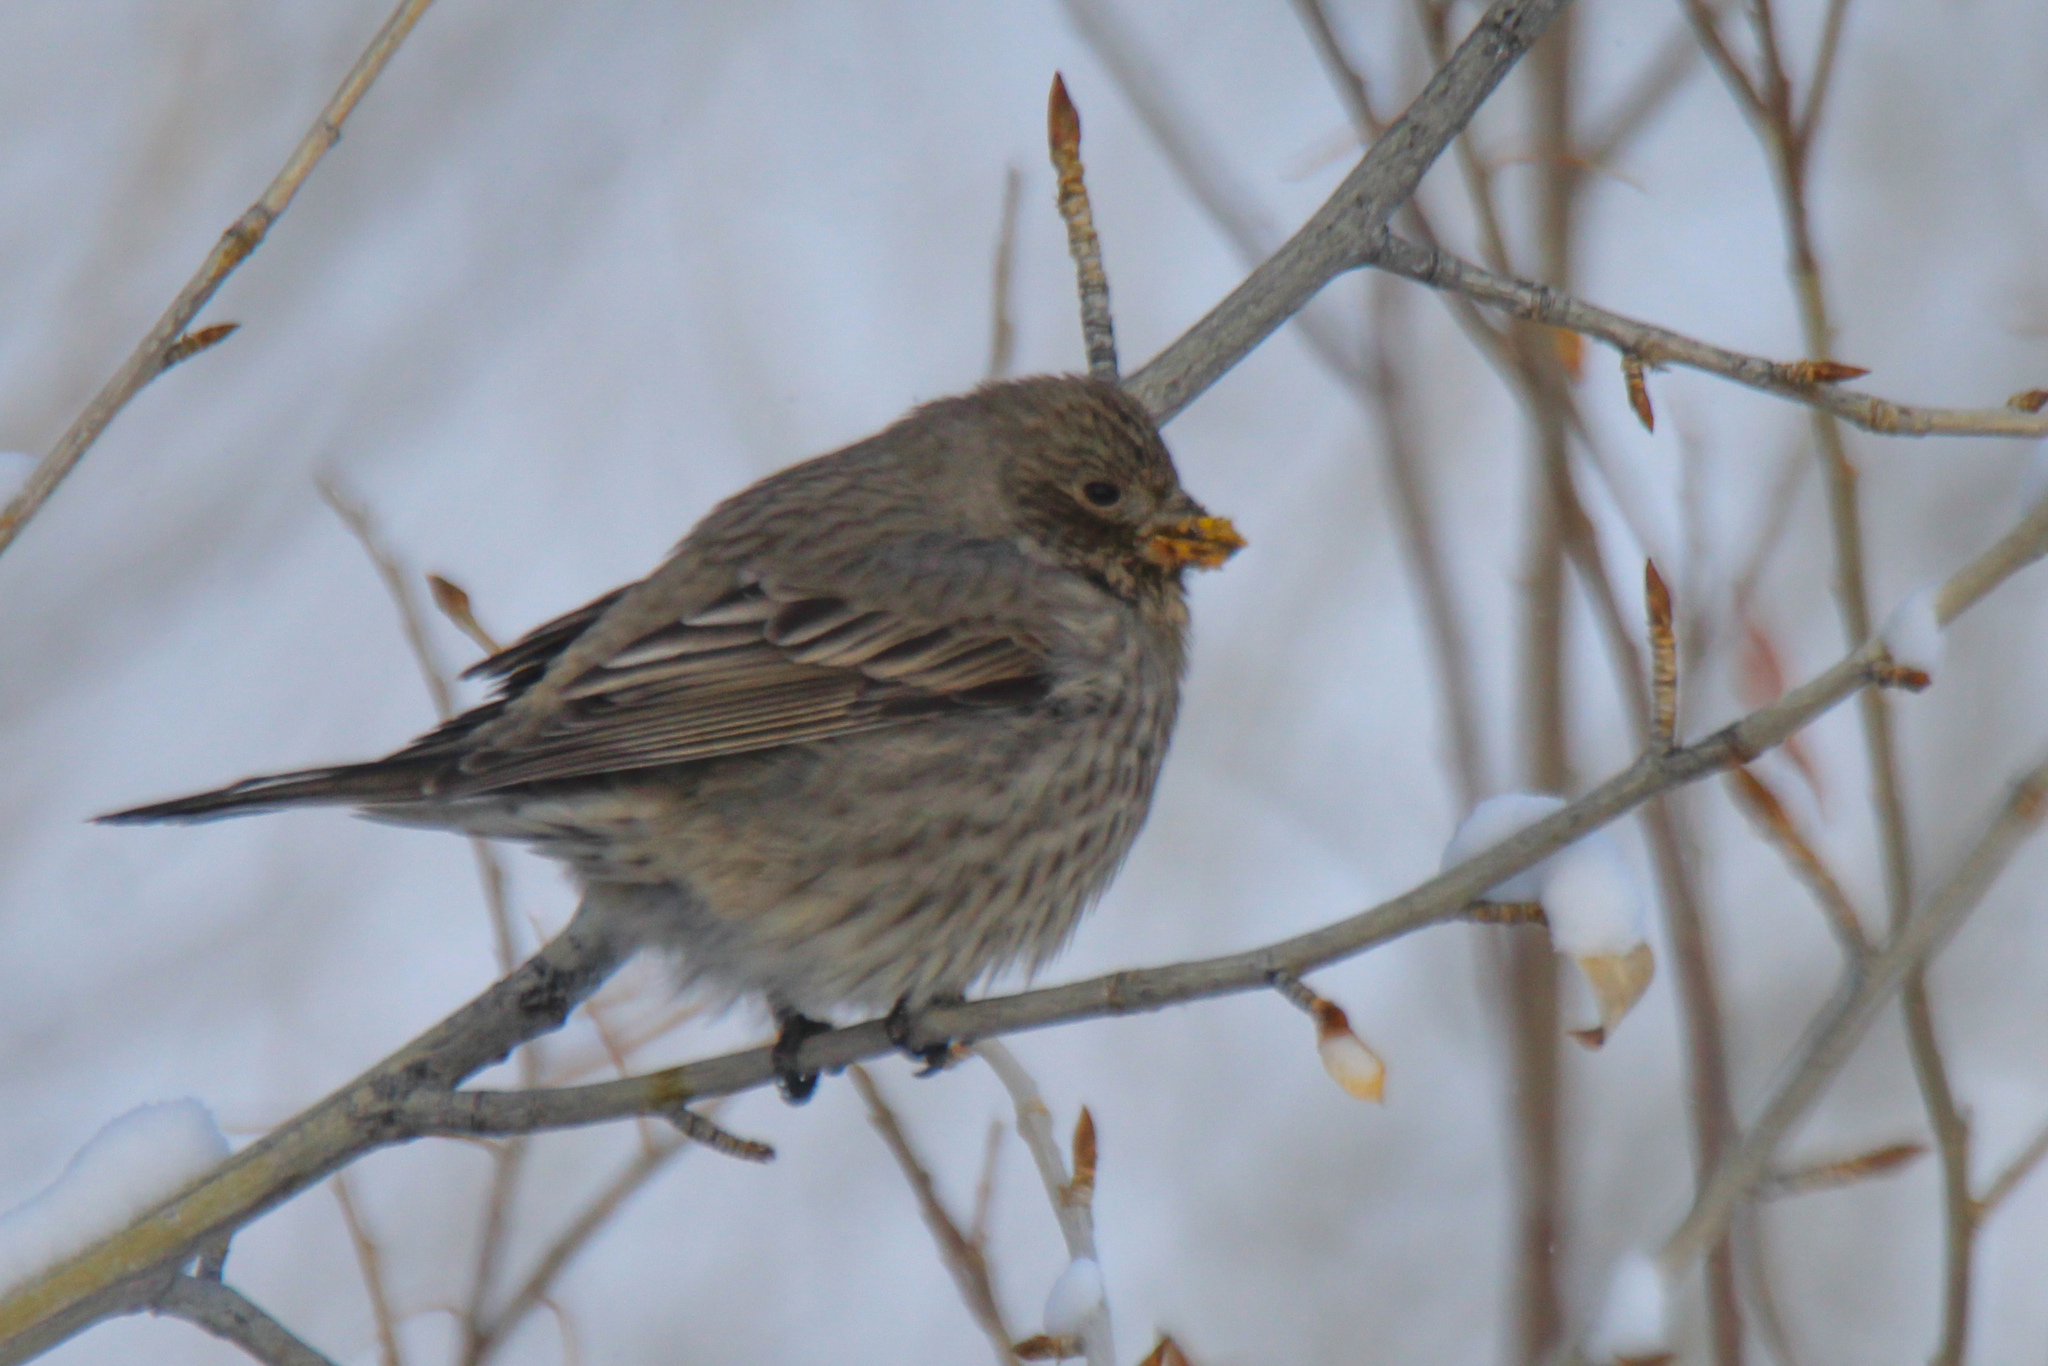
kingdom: Animalia
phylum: Chordata
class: Aves
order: Passeriformes
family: Fringillidae
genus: Carpodacus
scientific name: Carpodacus rubicilla
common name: Great rosefinch
